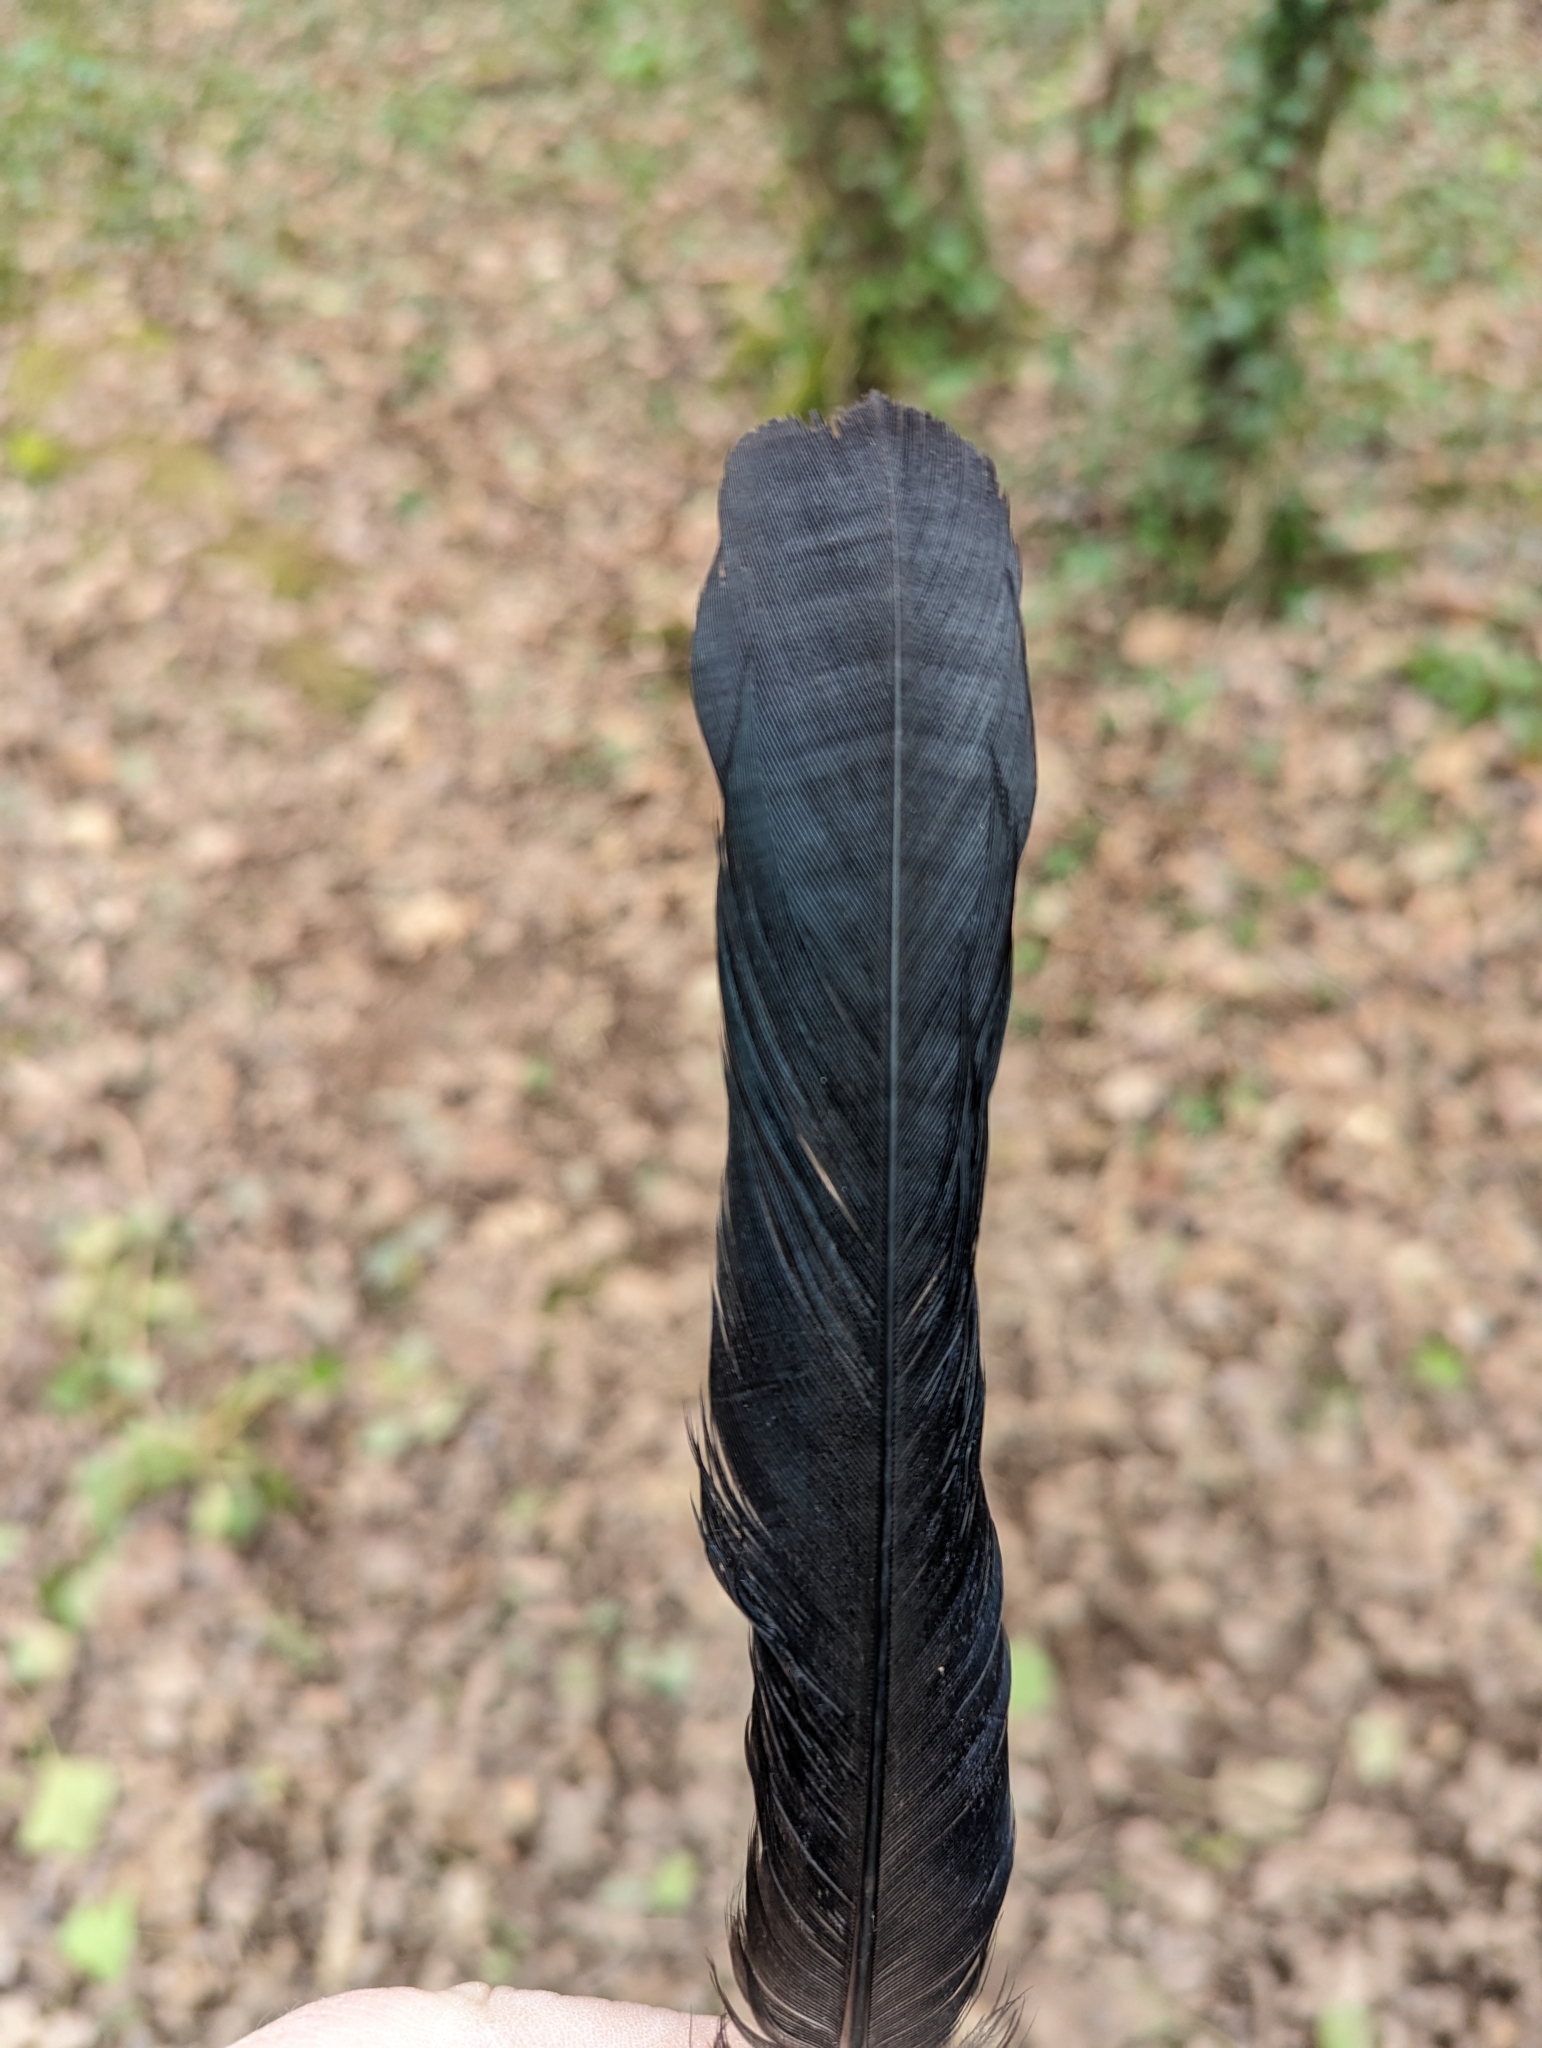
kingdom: Animalia
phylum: Chordata
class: Aves
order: Passeriformes
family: Corvidae
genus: Pica
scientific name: Pica pica
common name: Eurasian magpie
